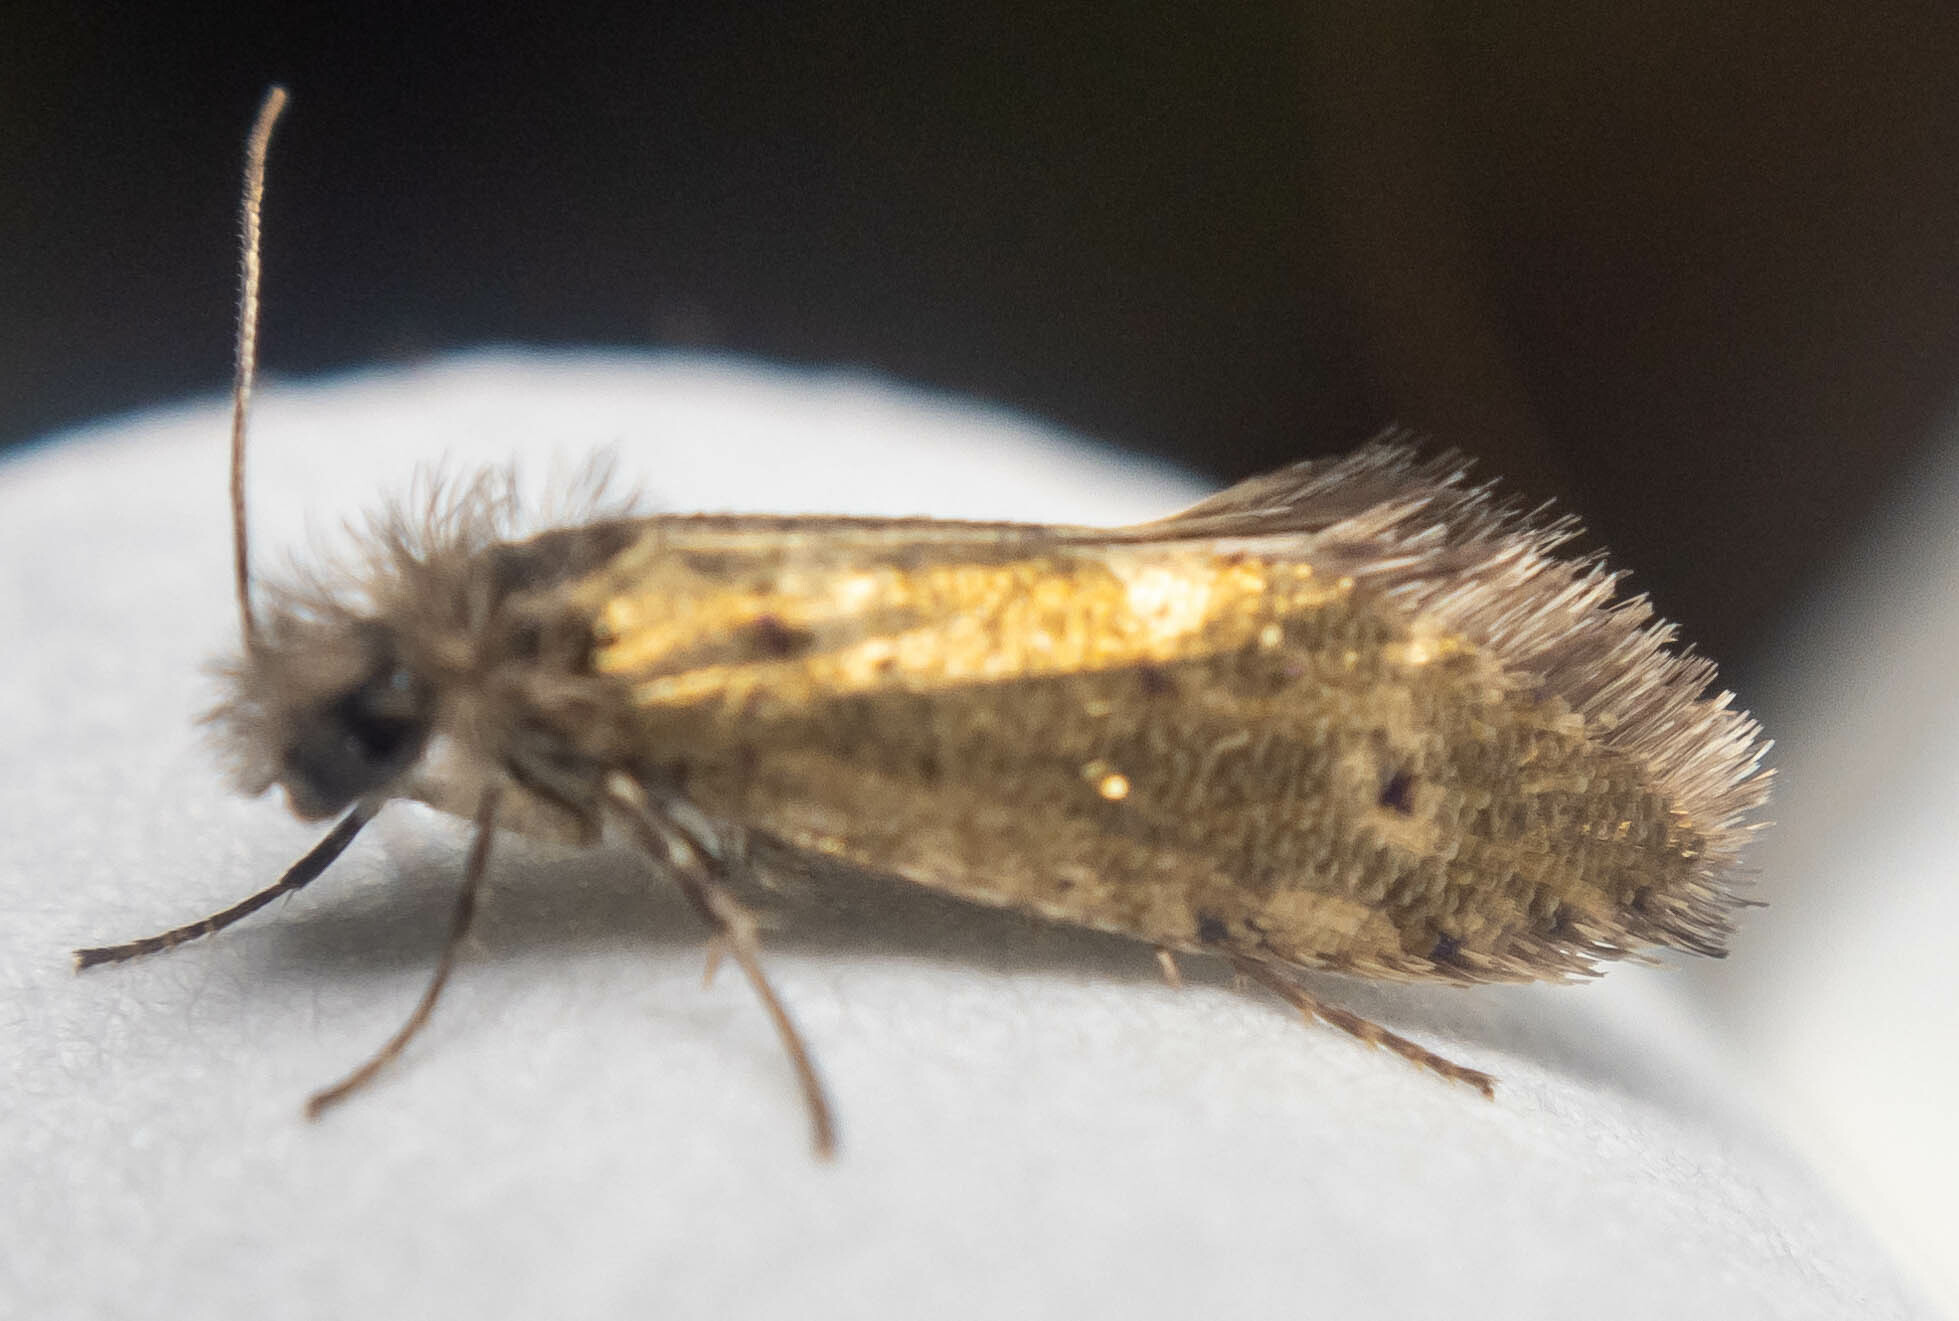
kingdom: Animalia
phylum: Arthropoda
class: Insecta
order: Lepidoptera
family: Eriocraniidae
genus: Dyseriocrania
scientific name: Dyseriocrania subpurpurella
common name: Common oak purple
